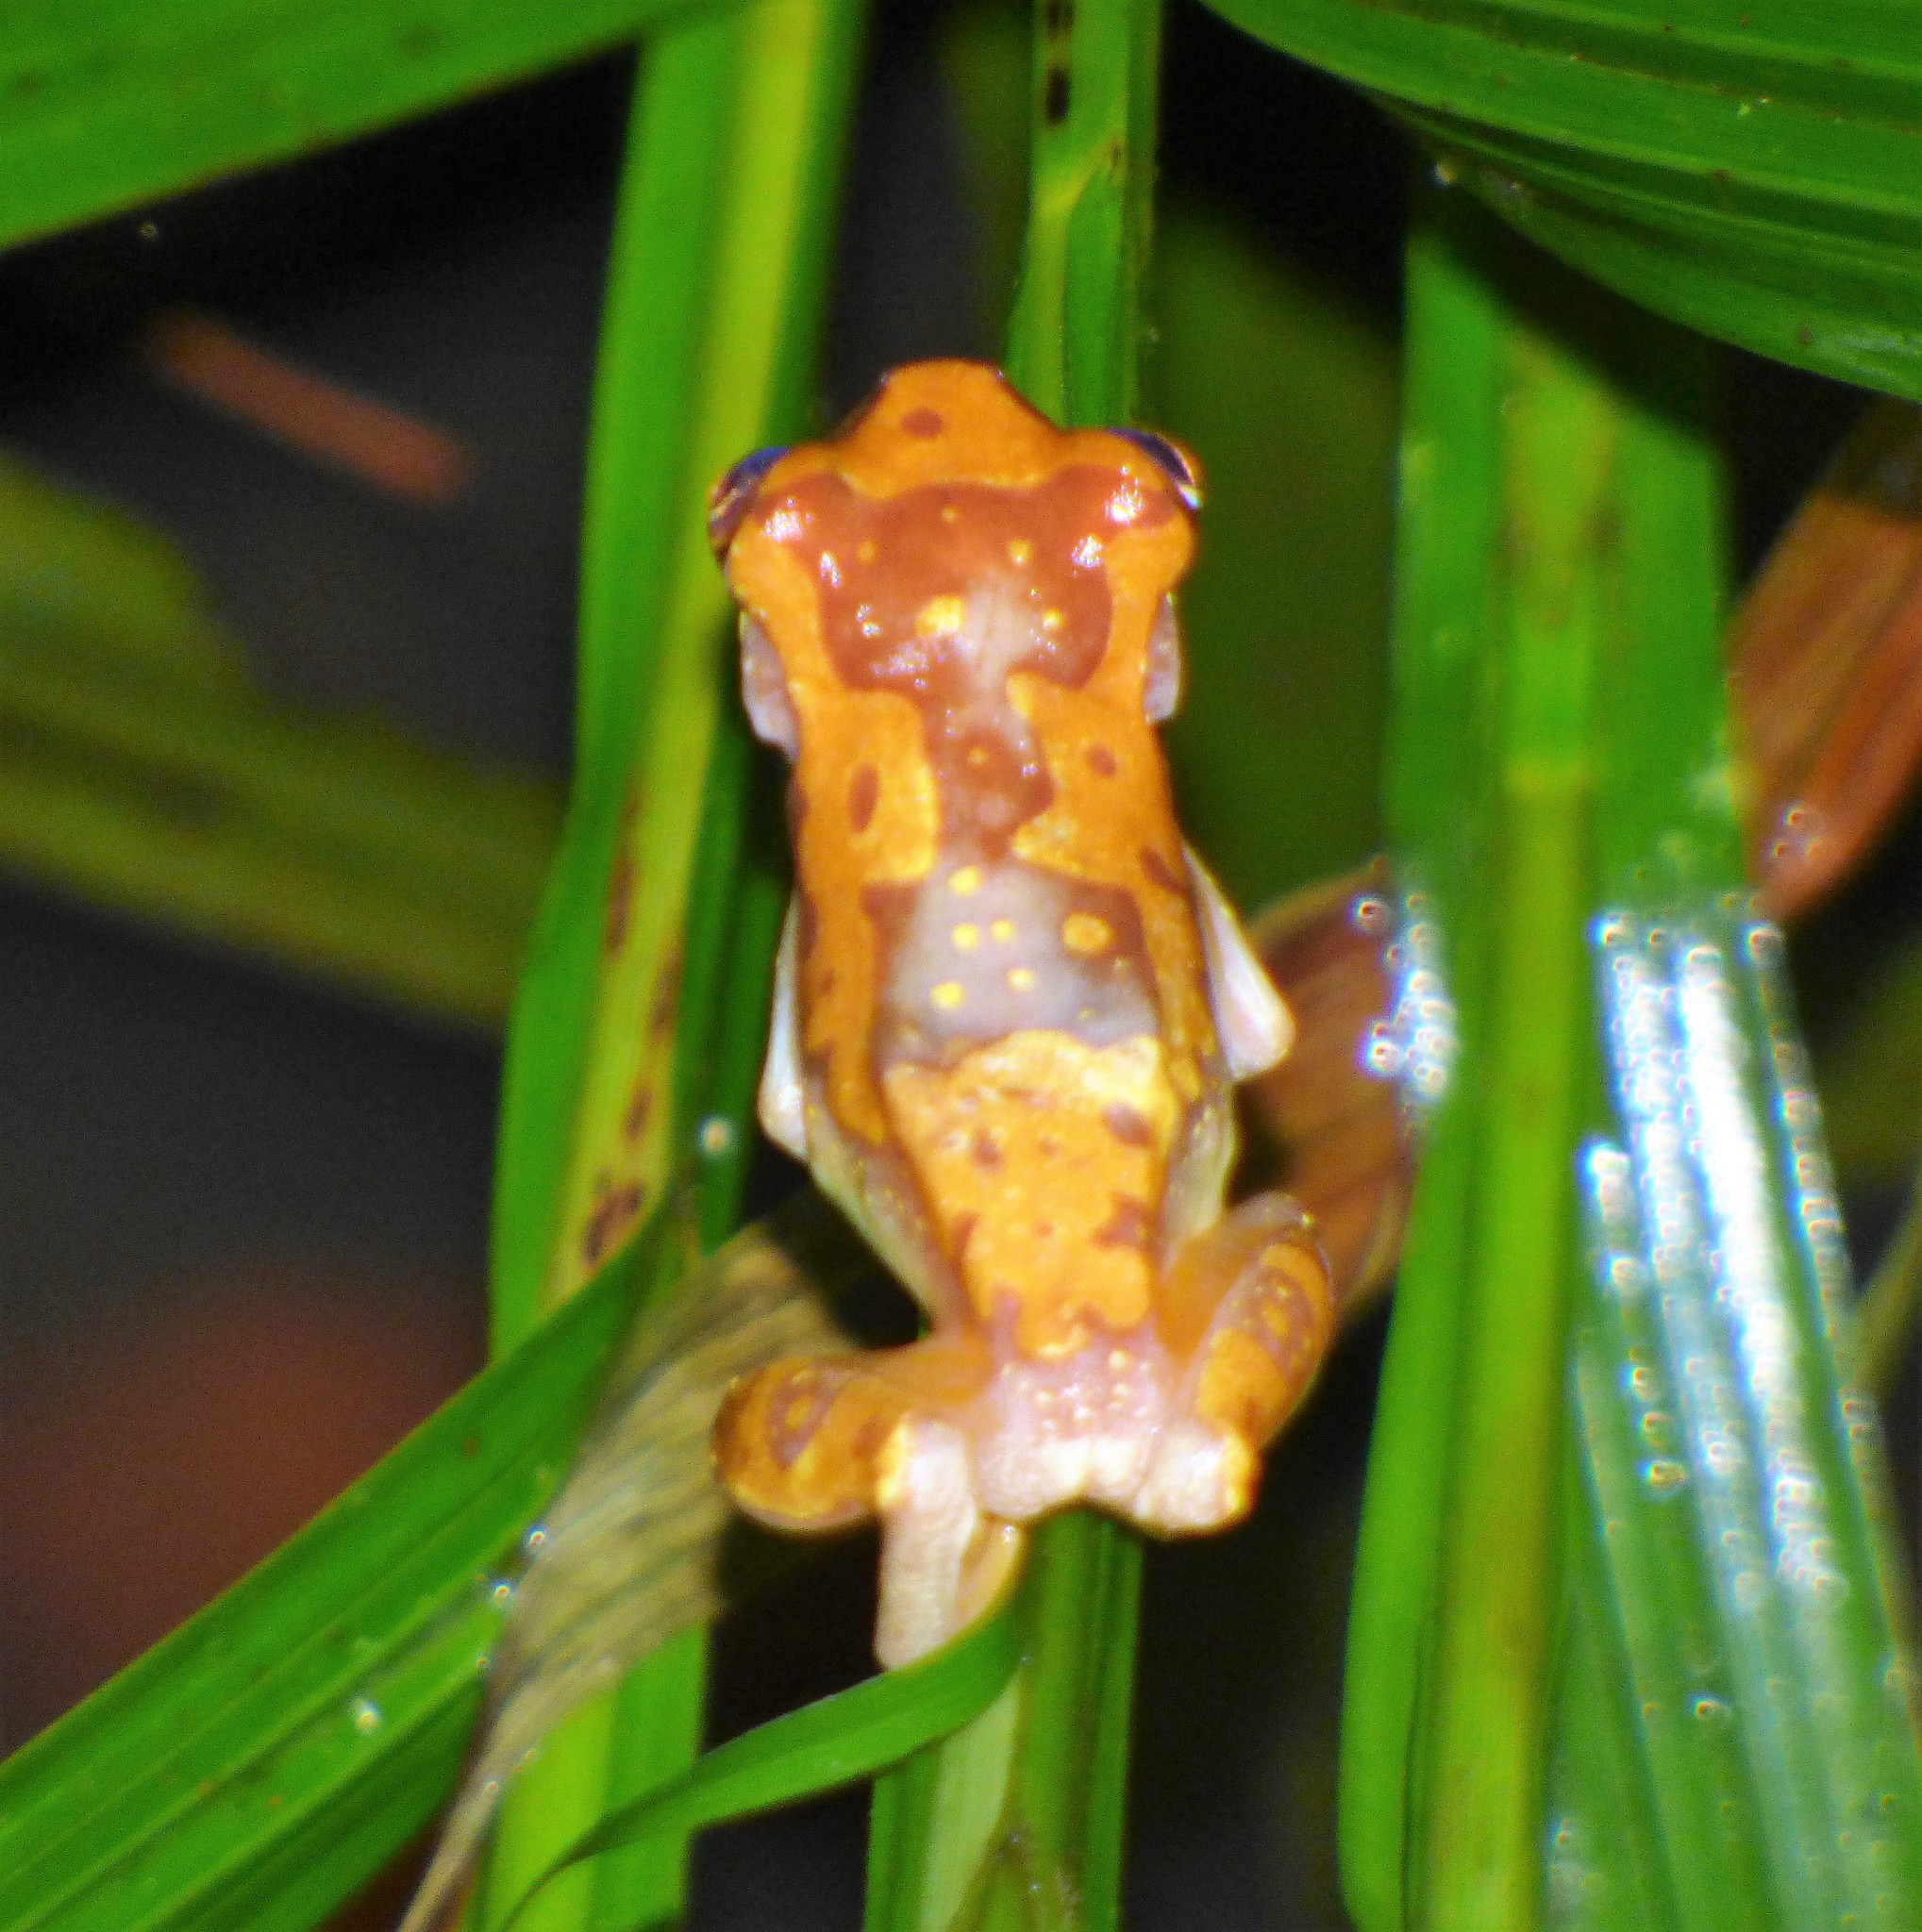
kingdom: Animalia
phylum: Chordata
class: Amphibia
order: Anura
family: Hylidae
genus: Dendropsophus
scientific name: Dendropsophus ebraccatus
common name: Hourglass treefrog
